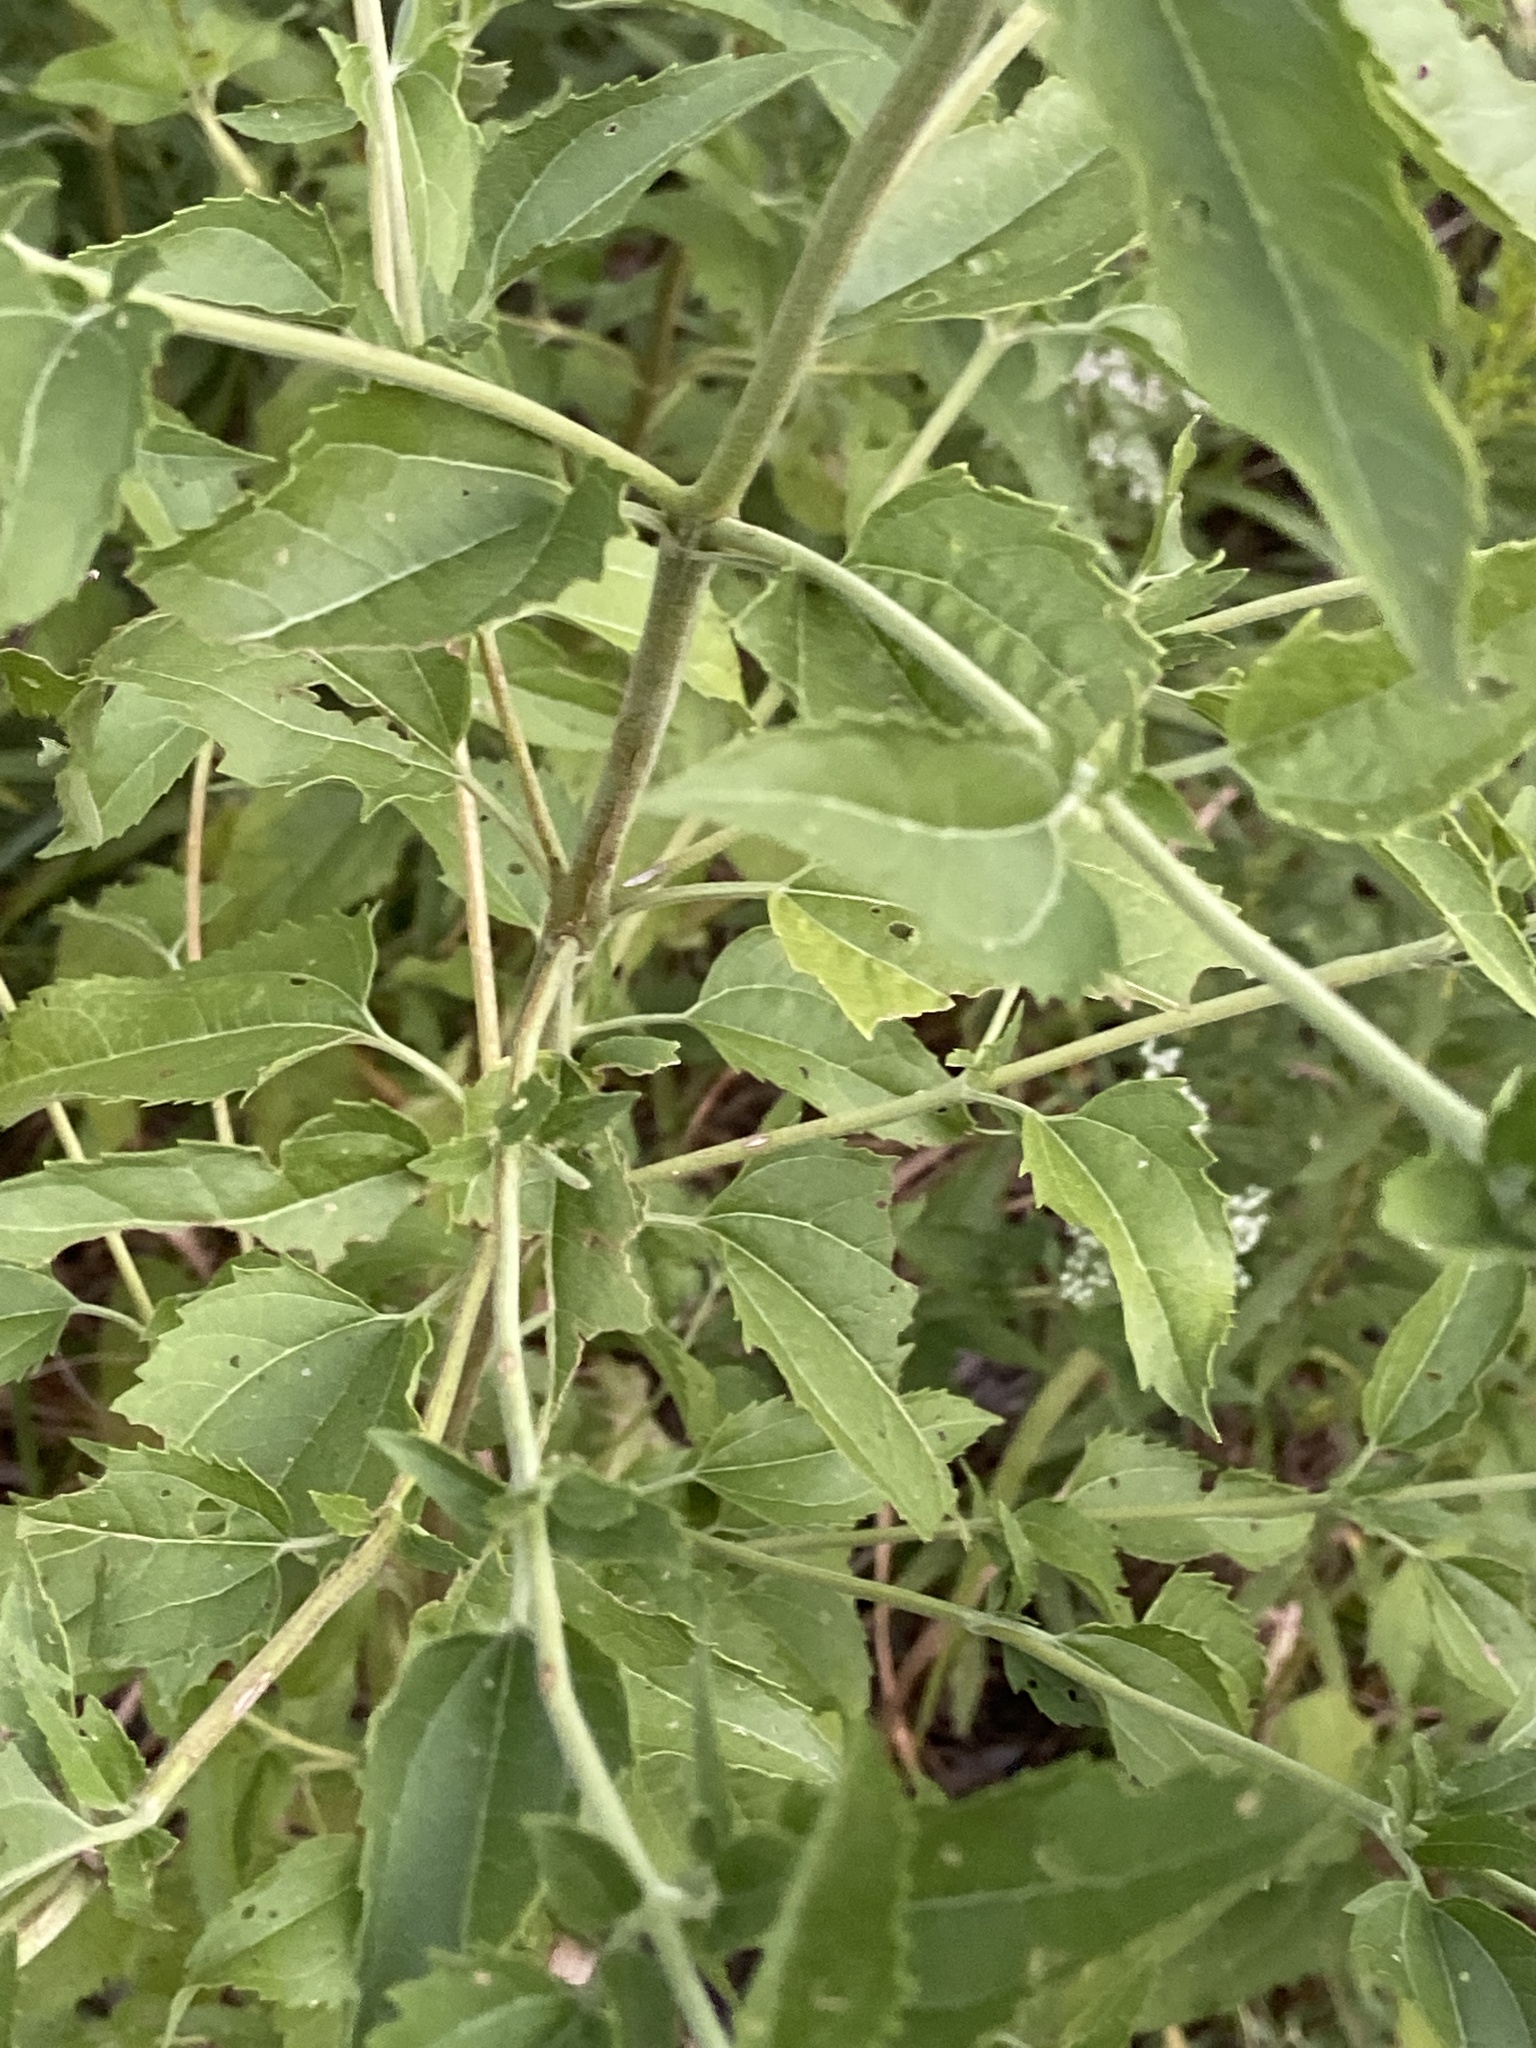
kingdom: Plantae
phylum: Tracheophyta
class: Magnoliopsida
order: Asterales
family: Asteraceae
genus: Eupatorium
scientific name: Eupatorium serotinum
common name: Late boneset
